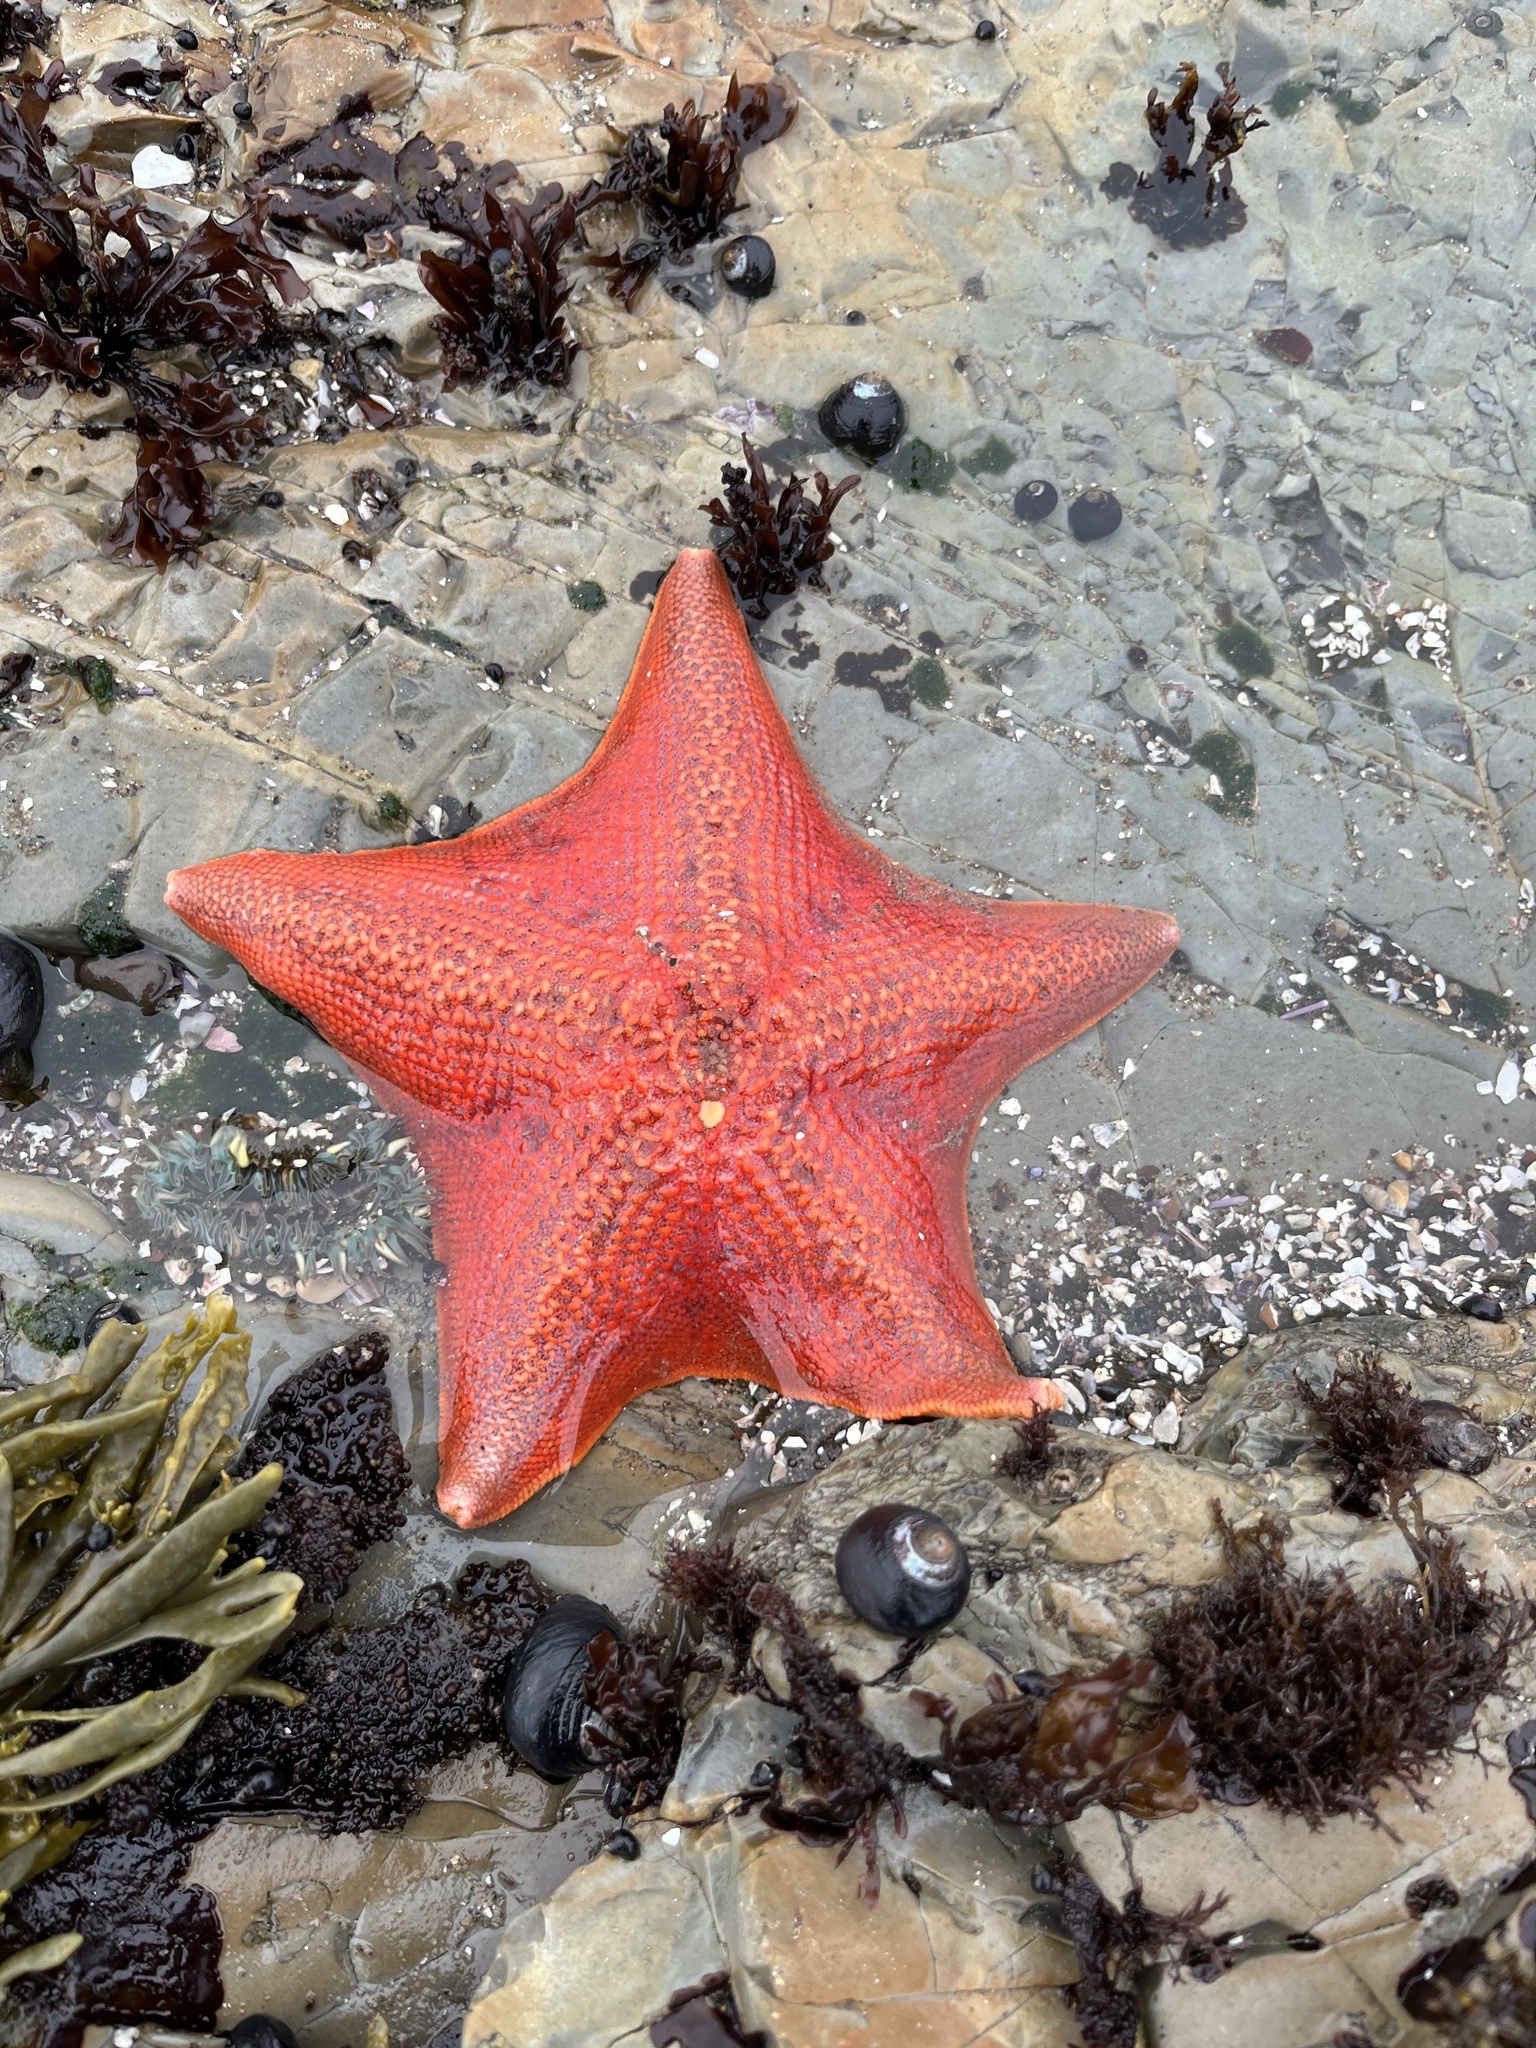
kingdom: Animalia
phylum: Echinodermata
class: Asteroidea
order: Valvatida
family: Asterinidae
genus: Patiria
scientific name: Patiria miniata
